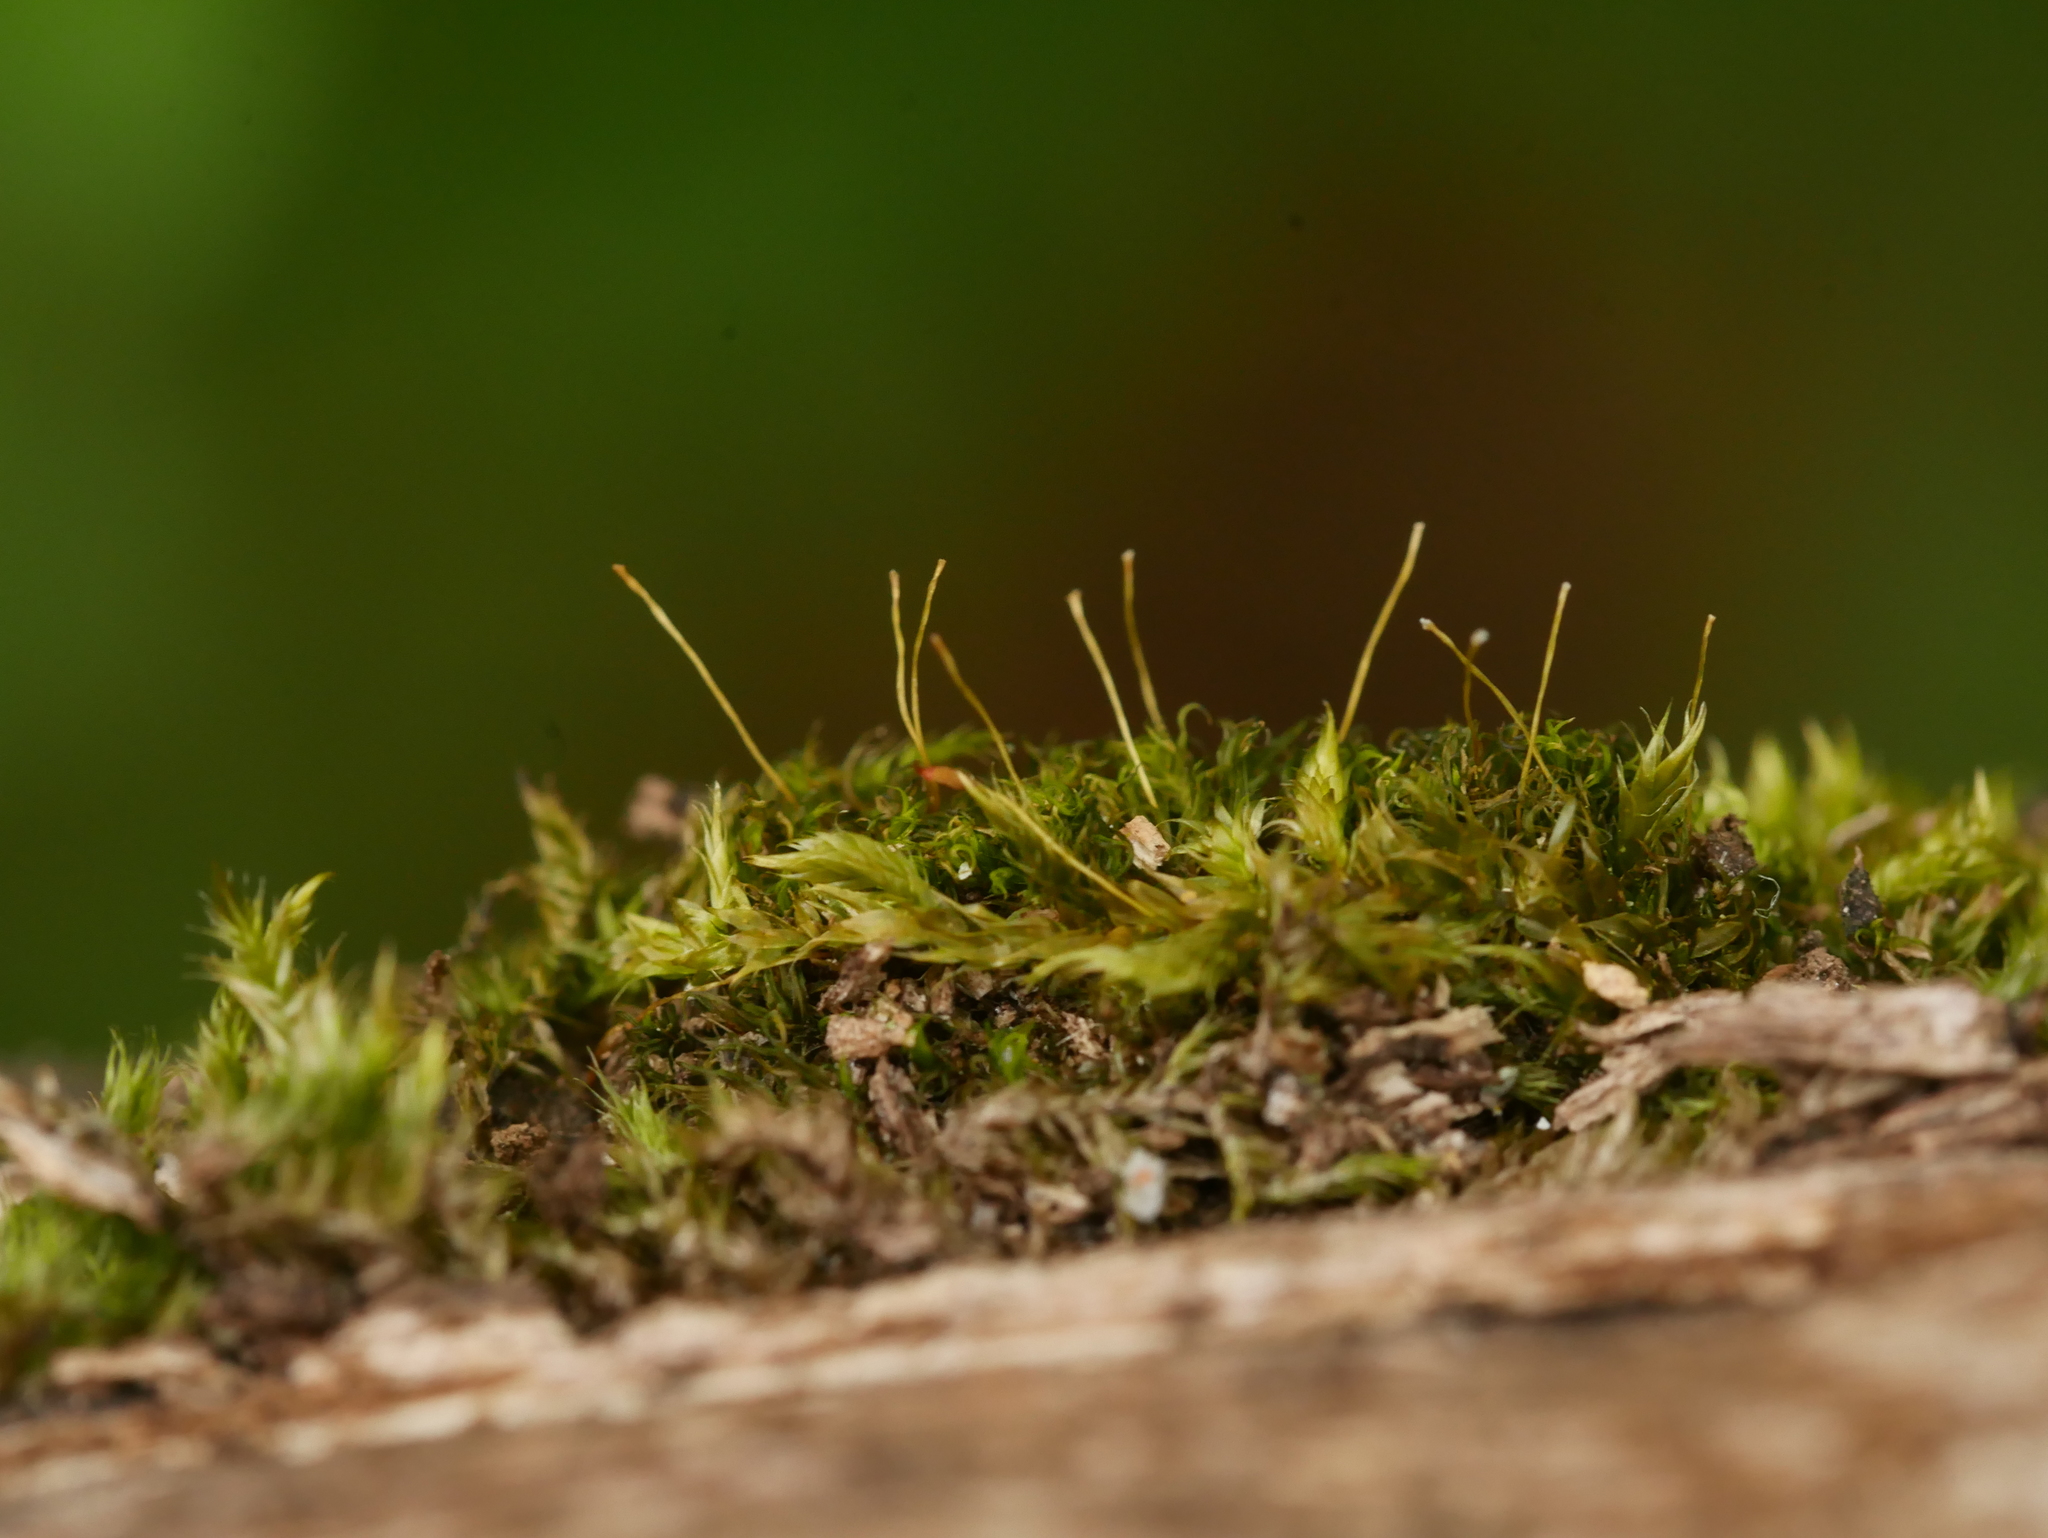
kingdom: Plantae
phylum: Bryophyta
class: Bryopsida
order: Dicranales
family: Rhabdoweisiaceae
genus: Dicranoweisia
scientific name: Dicranoweisia cirrata
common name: Common pincushion
